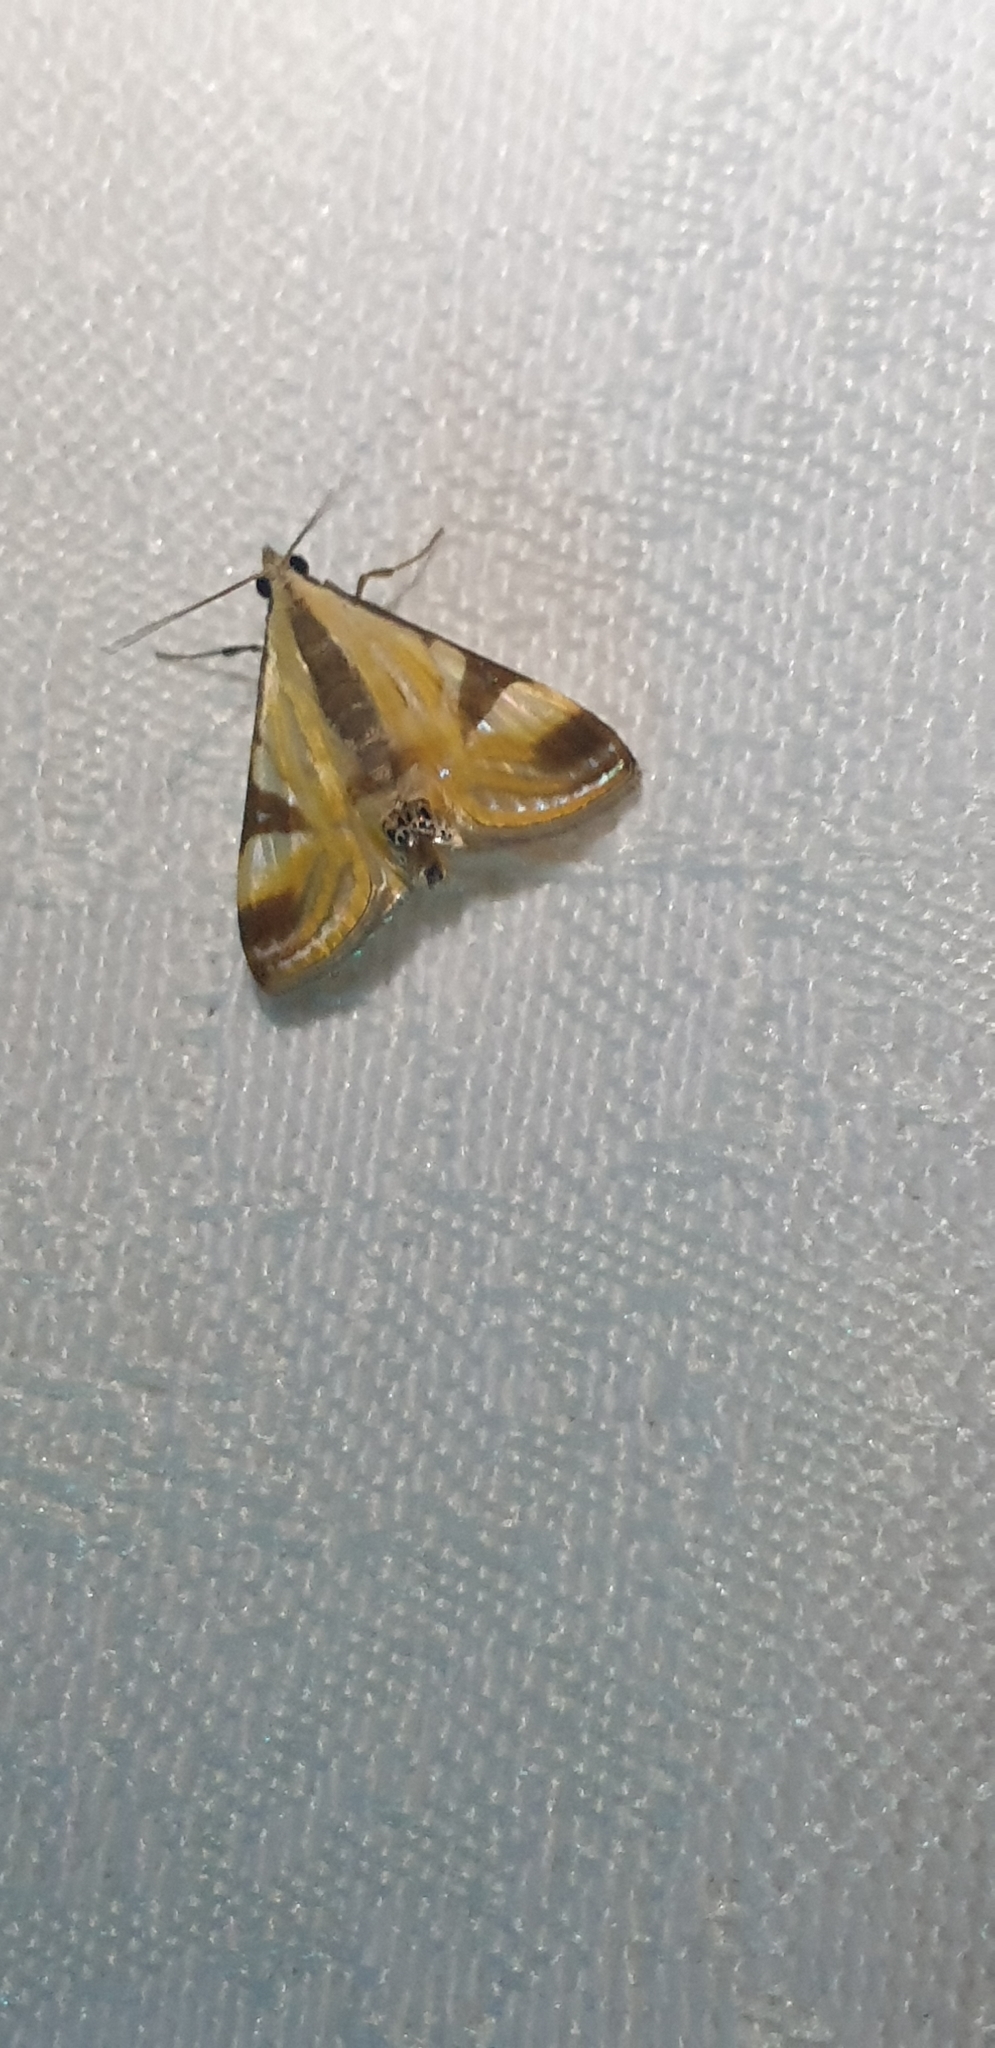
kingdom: Animalia
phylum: Arthropoda
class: Insecta
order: Lepidoptera
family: Crambidae
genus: Talanga
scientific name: Talanga tolumnialis
